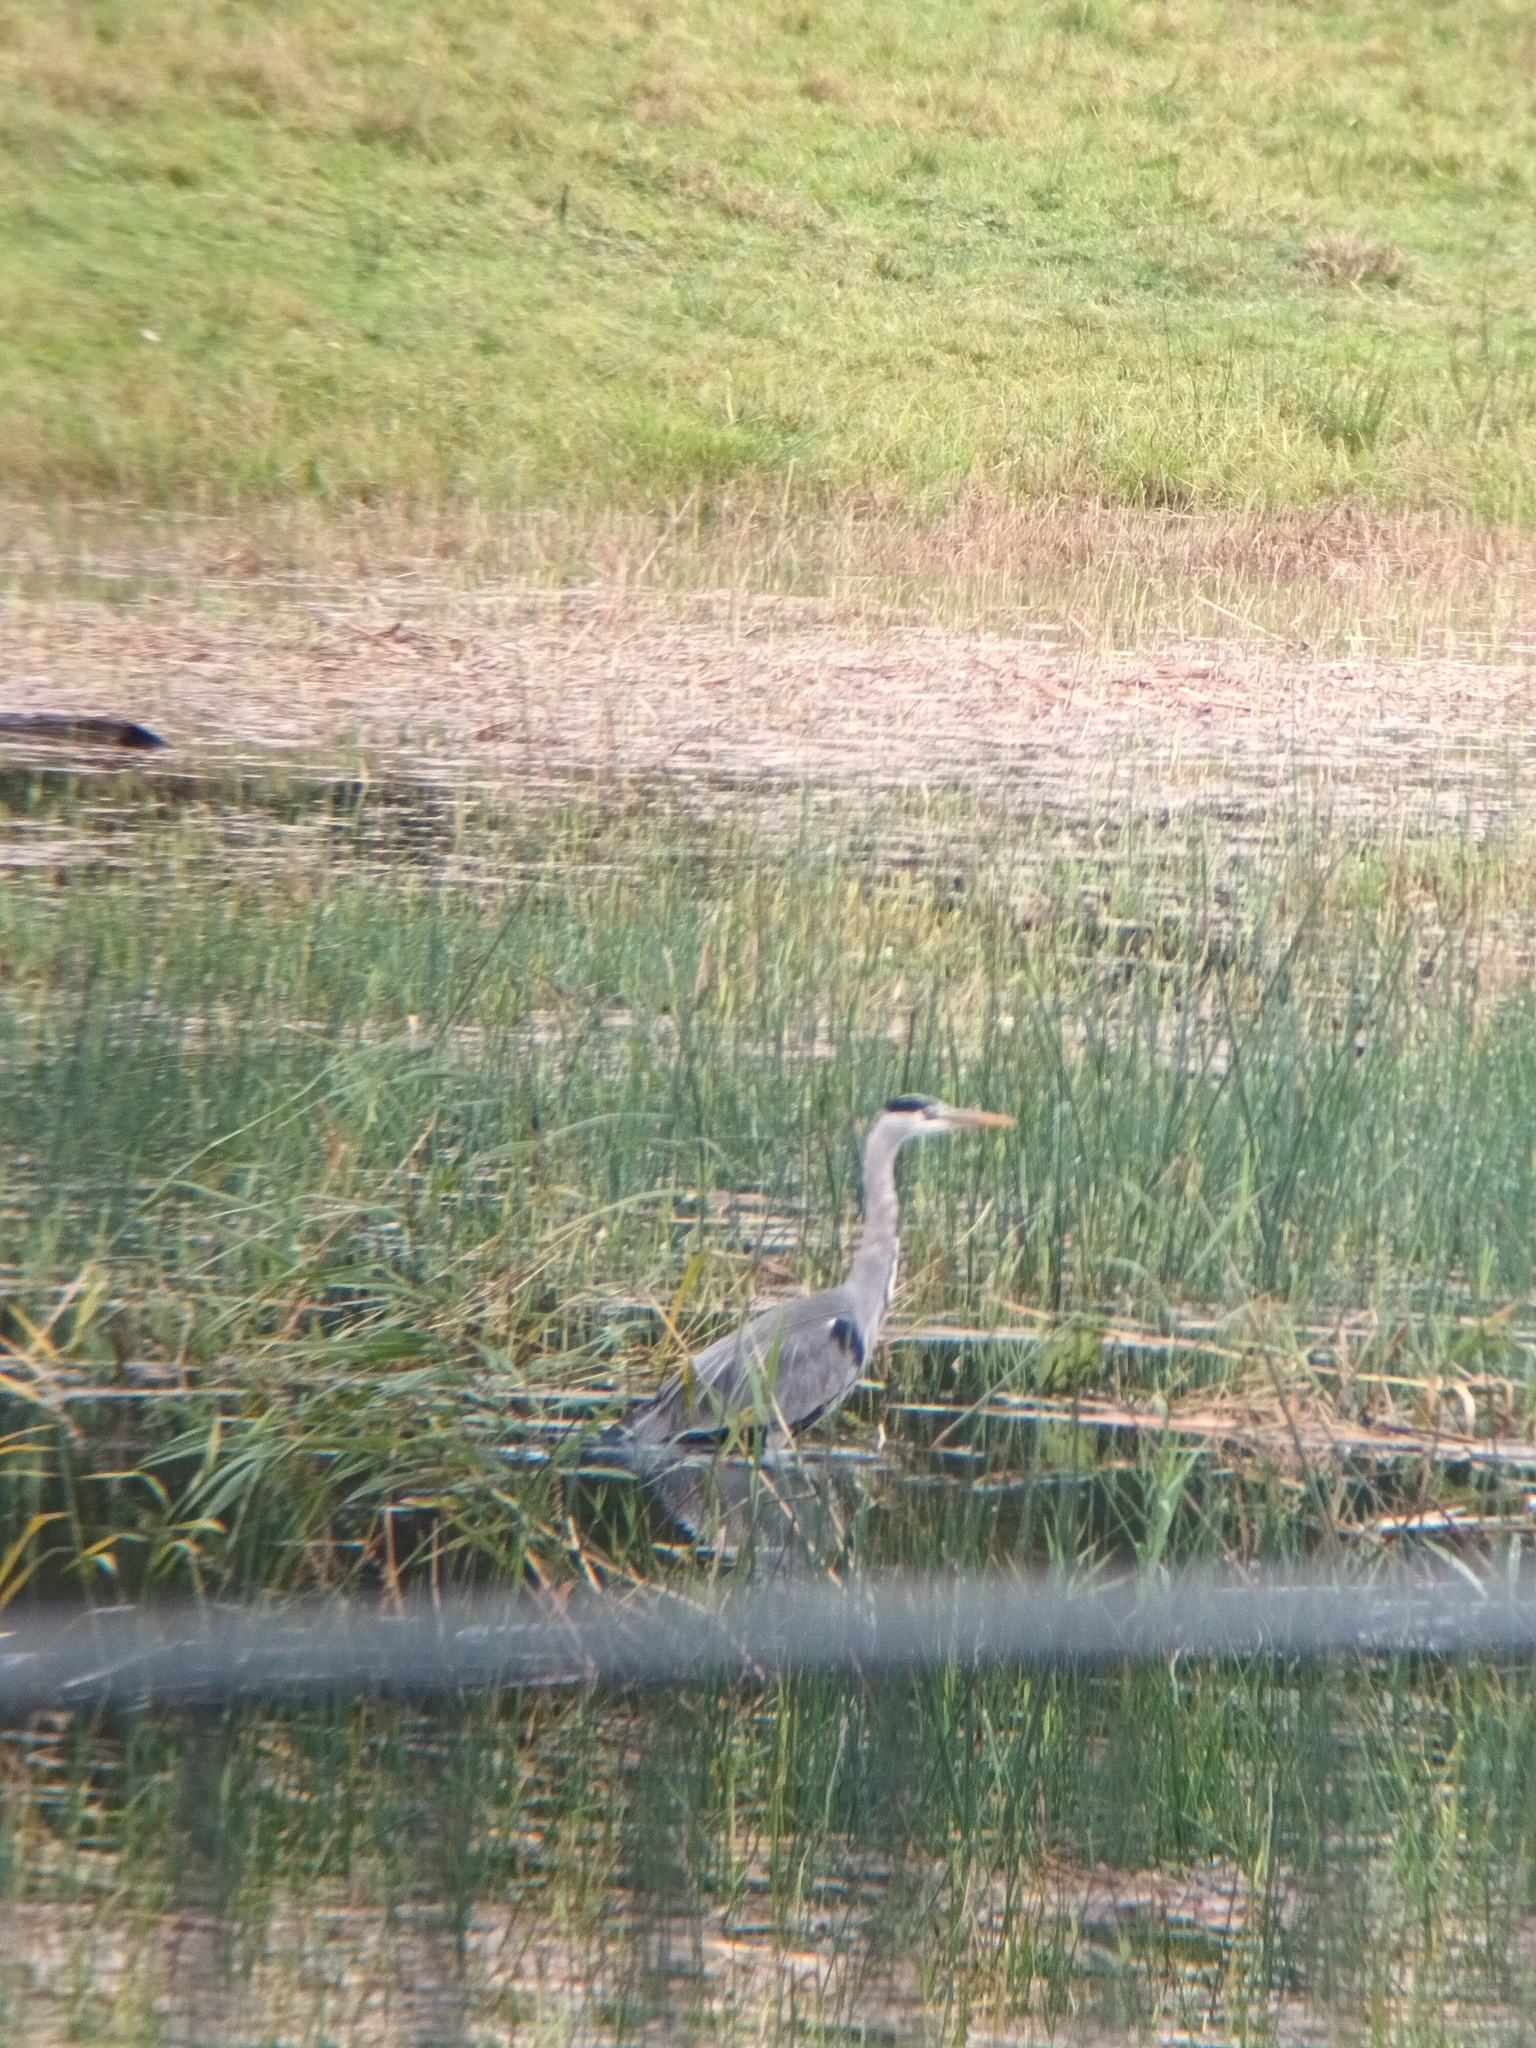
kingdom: Animalia
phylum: Chordata
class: Aves
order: Pelecaniformes
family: Ardeidae
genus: Ardea
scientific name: Ardea cinerea
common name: Grey heron
